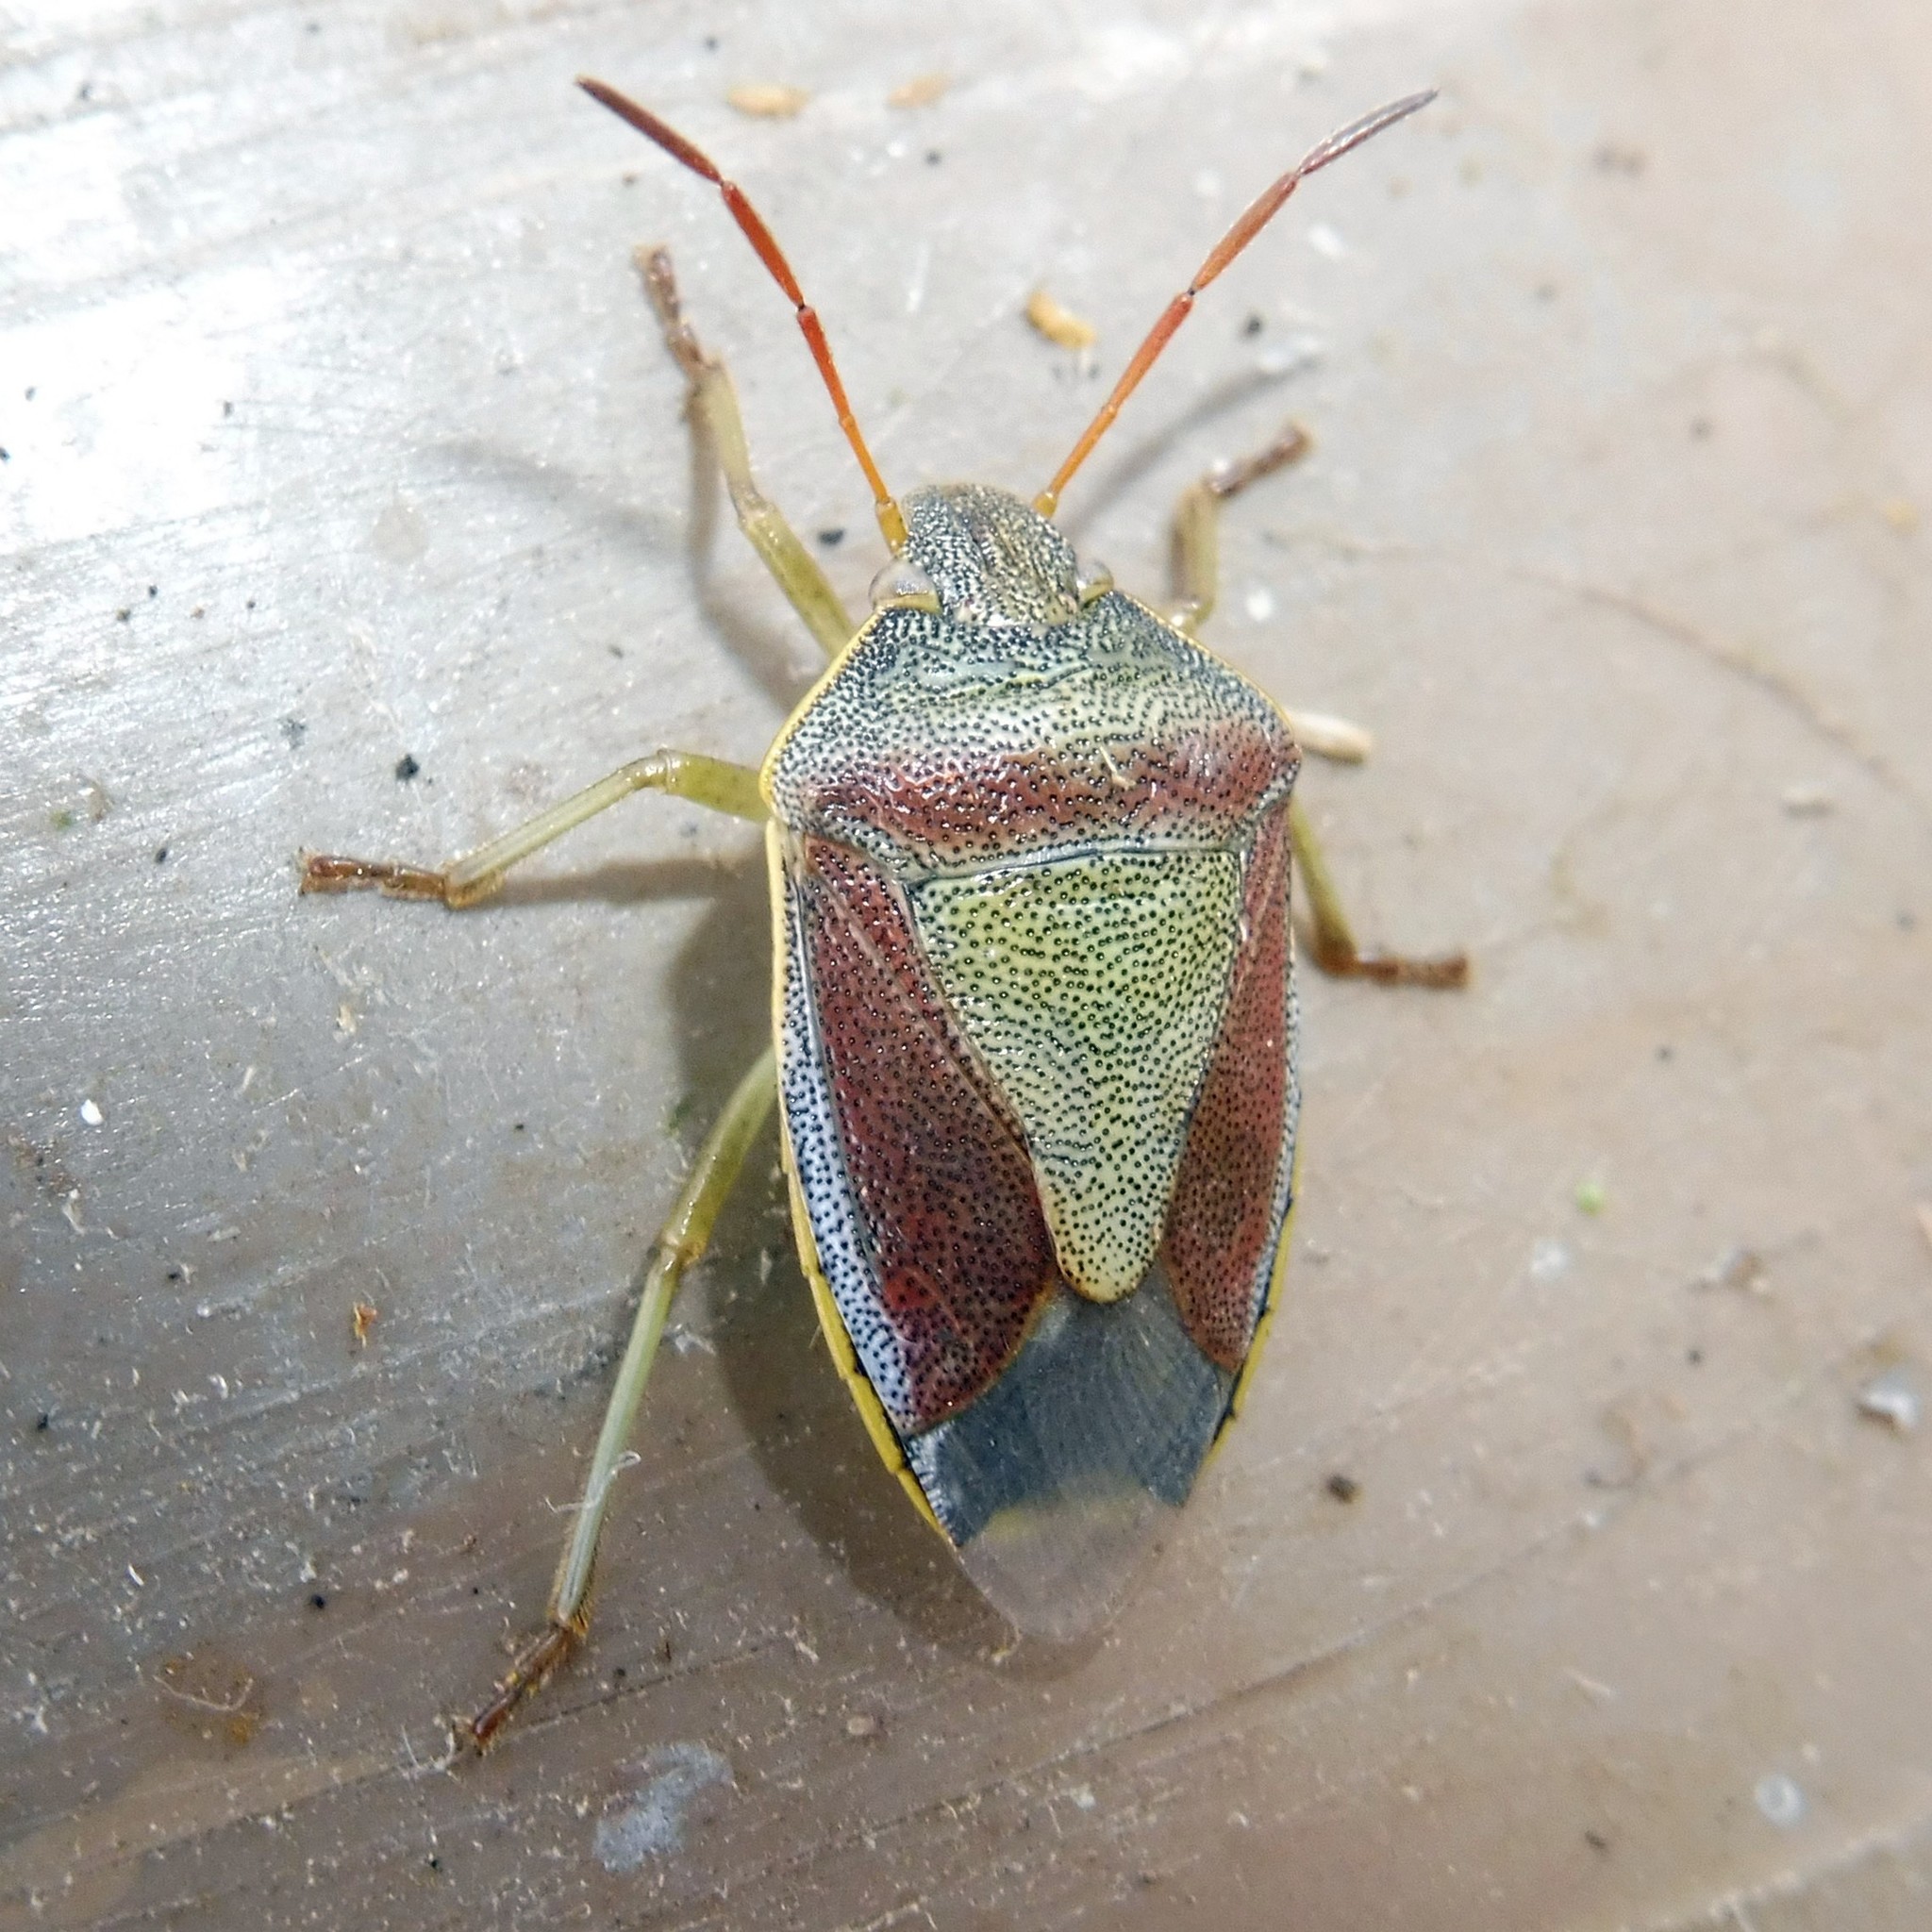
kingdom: Animalia
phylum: Arthropoda
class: Insecta
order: Hemiptera
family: Pentatomidae
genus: Piezodorus
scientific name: Piezodorus lituratus
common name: Stink bug
